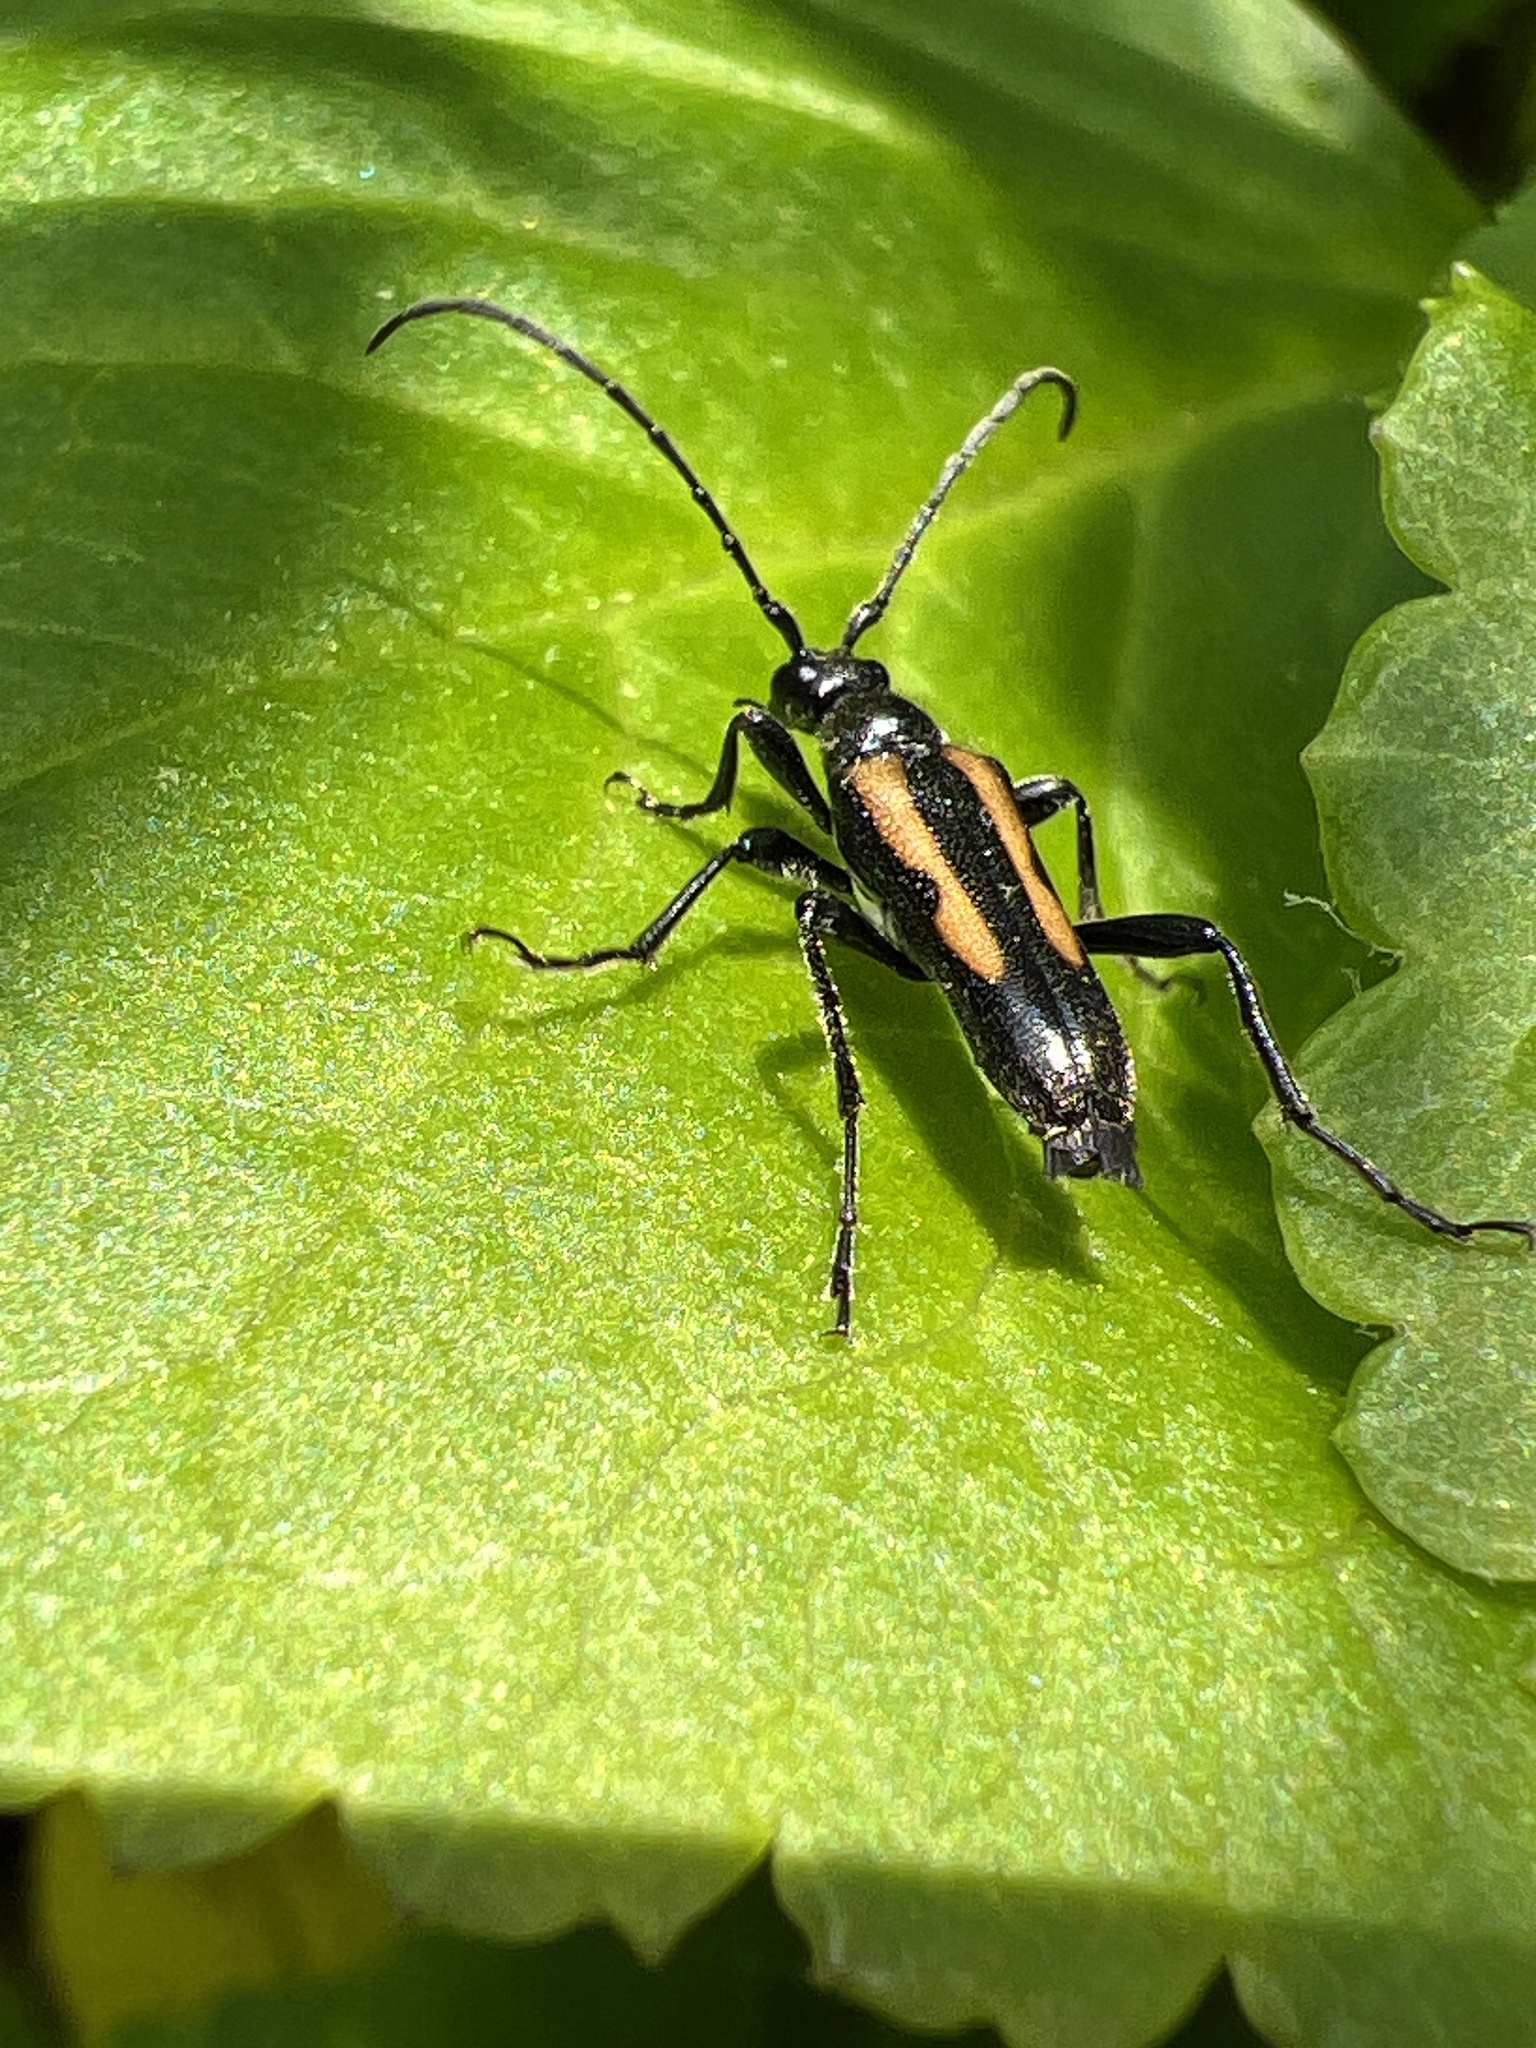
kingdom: Animalia
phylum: Arthropoda
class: Insecta
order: Coleoptera
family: Cerambycidae
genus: Strangalepta
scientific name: Strangalepta abbreviata
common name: Strangalepta flower longhorn beetle
